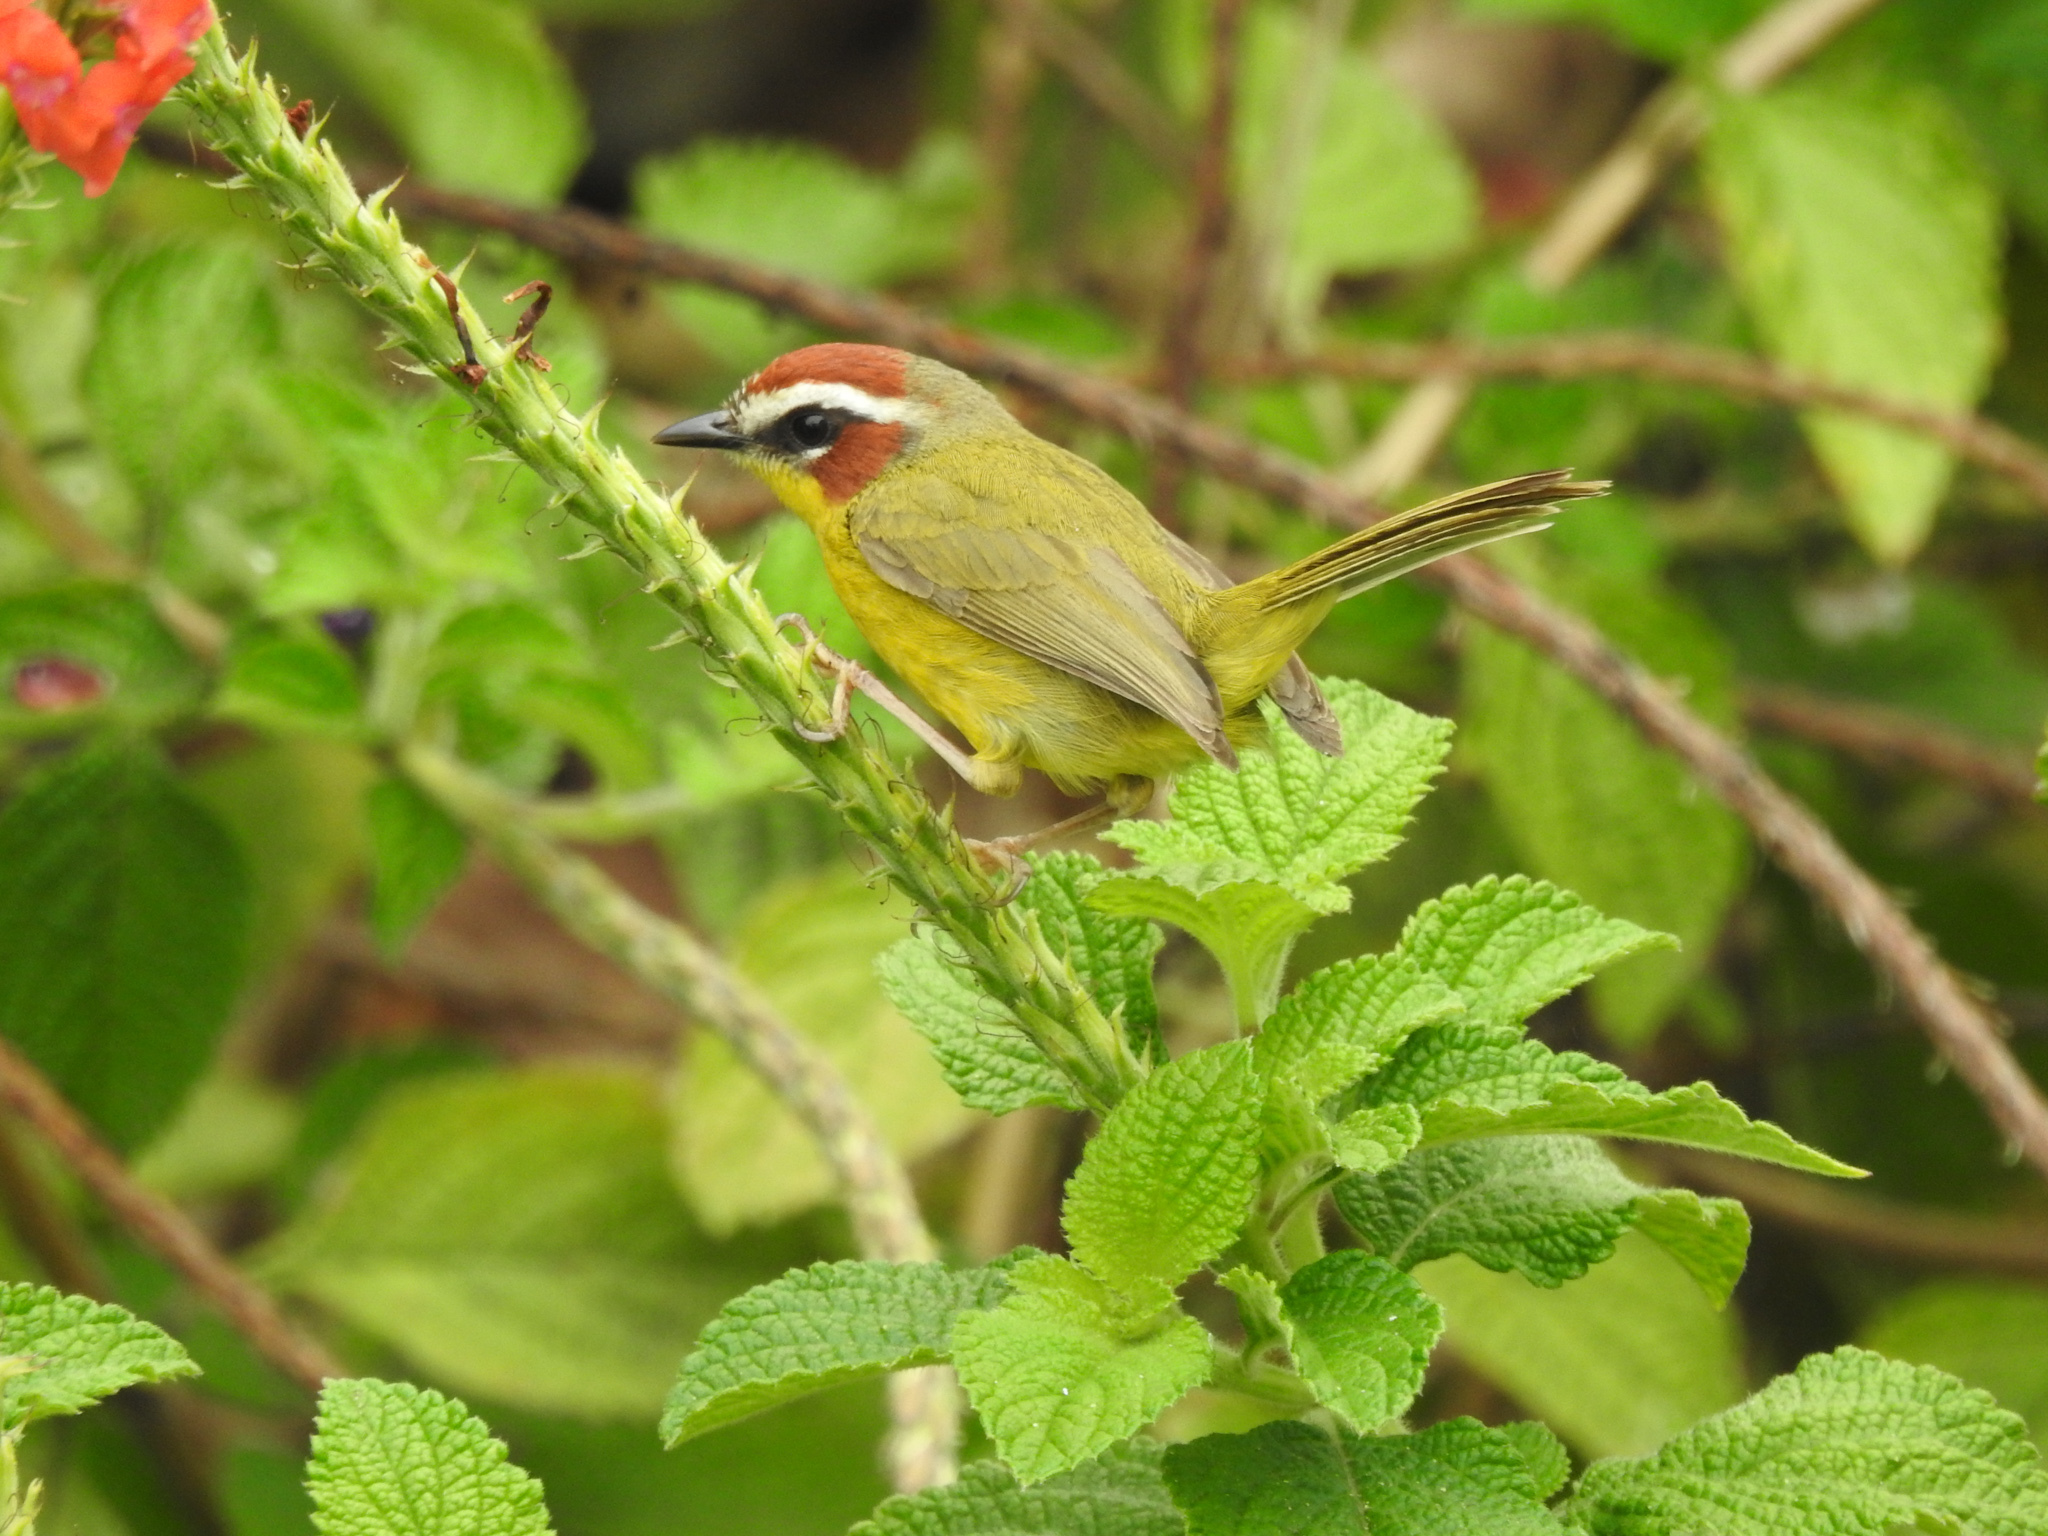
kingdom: Animalia
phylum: Chordata
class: Aves
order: Passeriformes
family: Parulidae
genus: Basileuterus
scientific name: Basileuterus rufifrons
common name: Rufous-capped warbler
